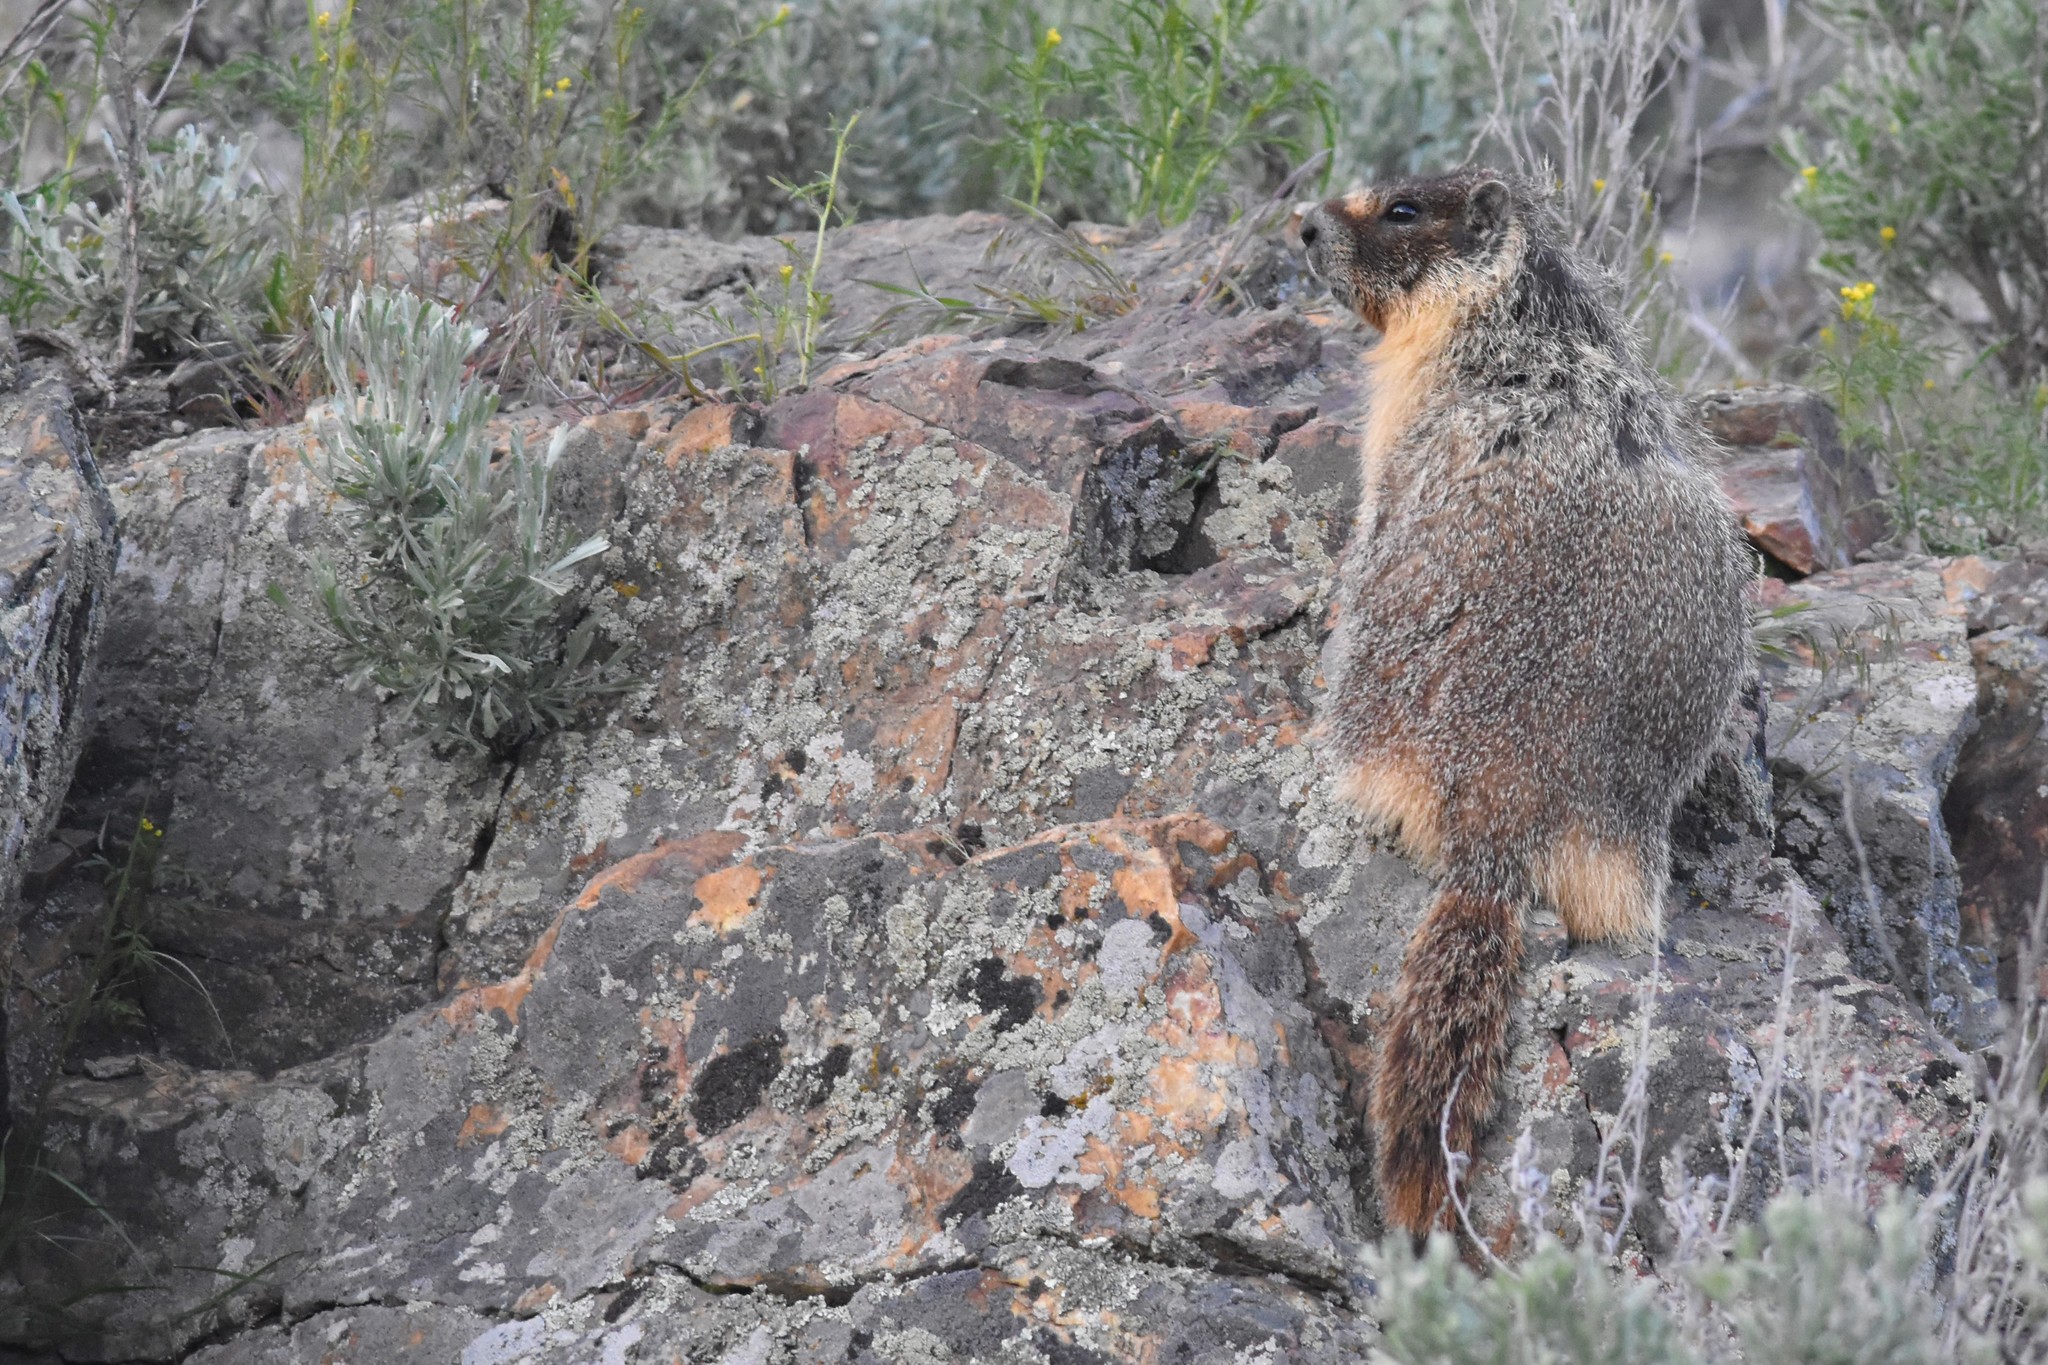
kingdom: Animalia
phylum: Chordata
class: Mammalia
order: Rodentia
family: Sciuridae
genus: Marmota
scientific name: Marmota flaviventris
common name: Yellow-bellied marmot
